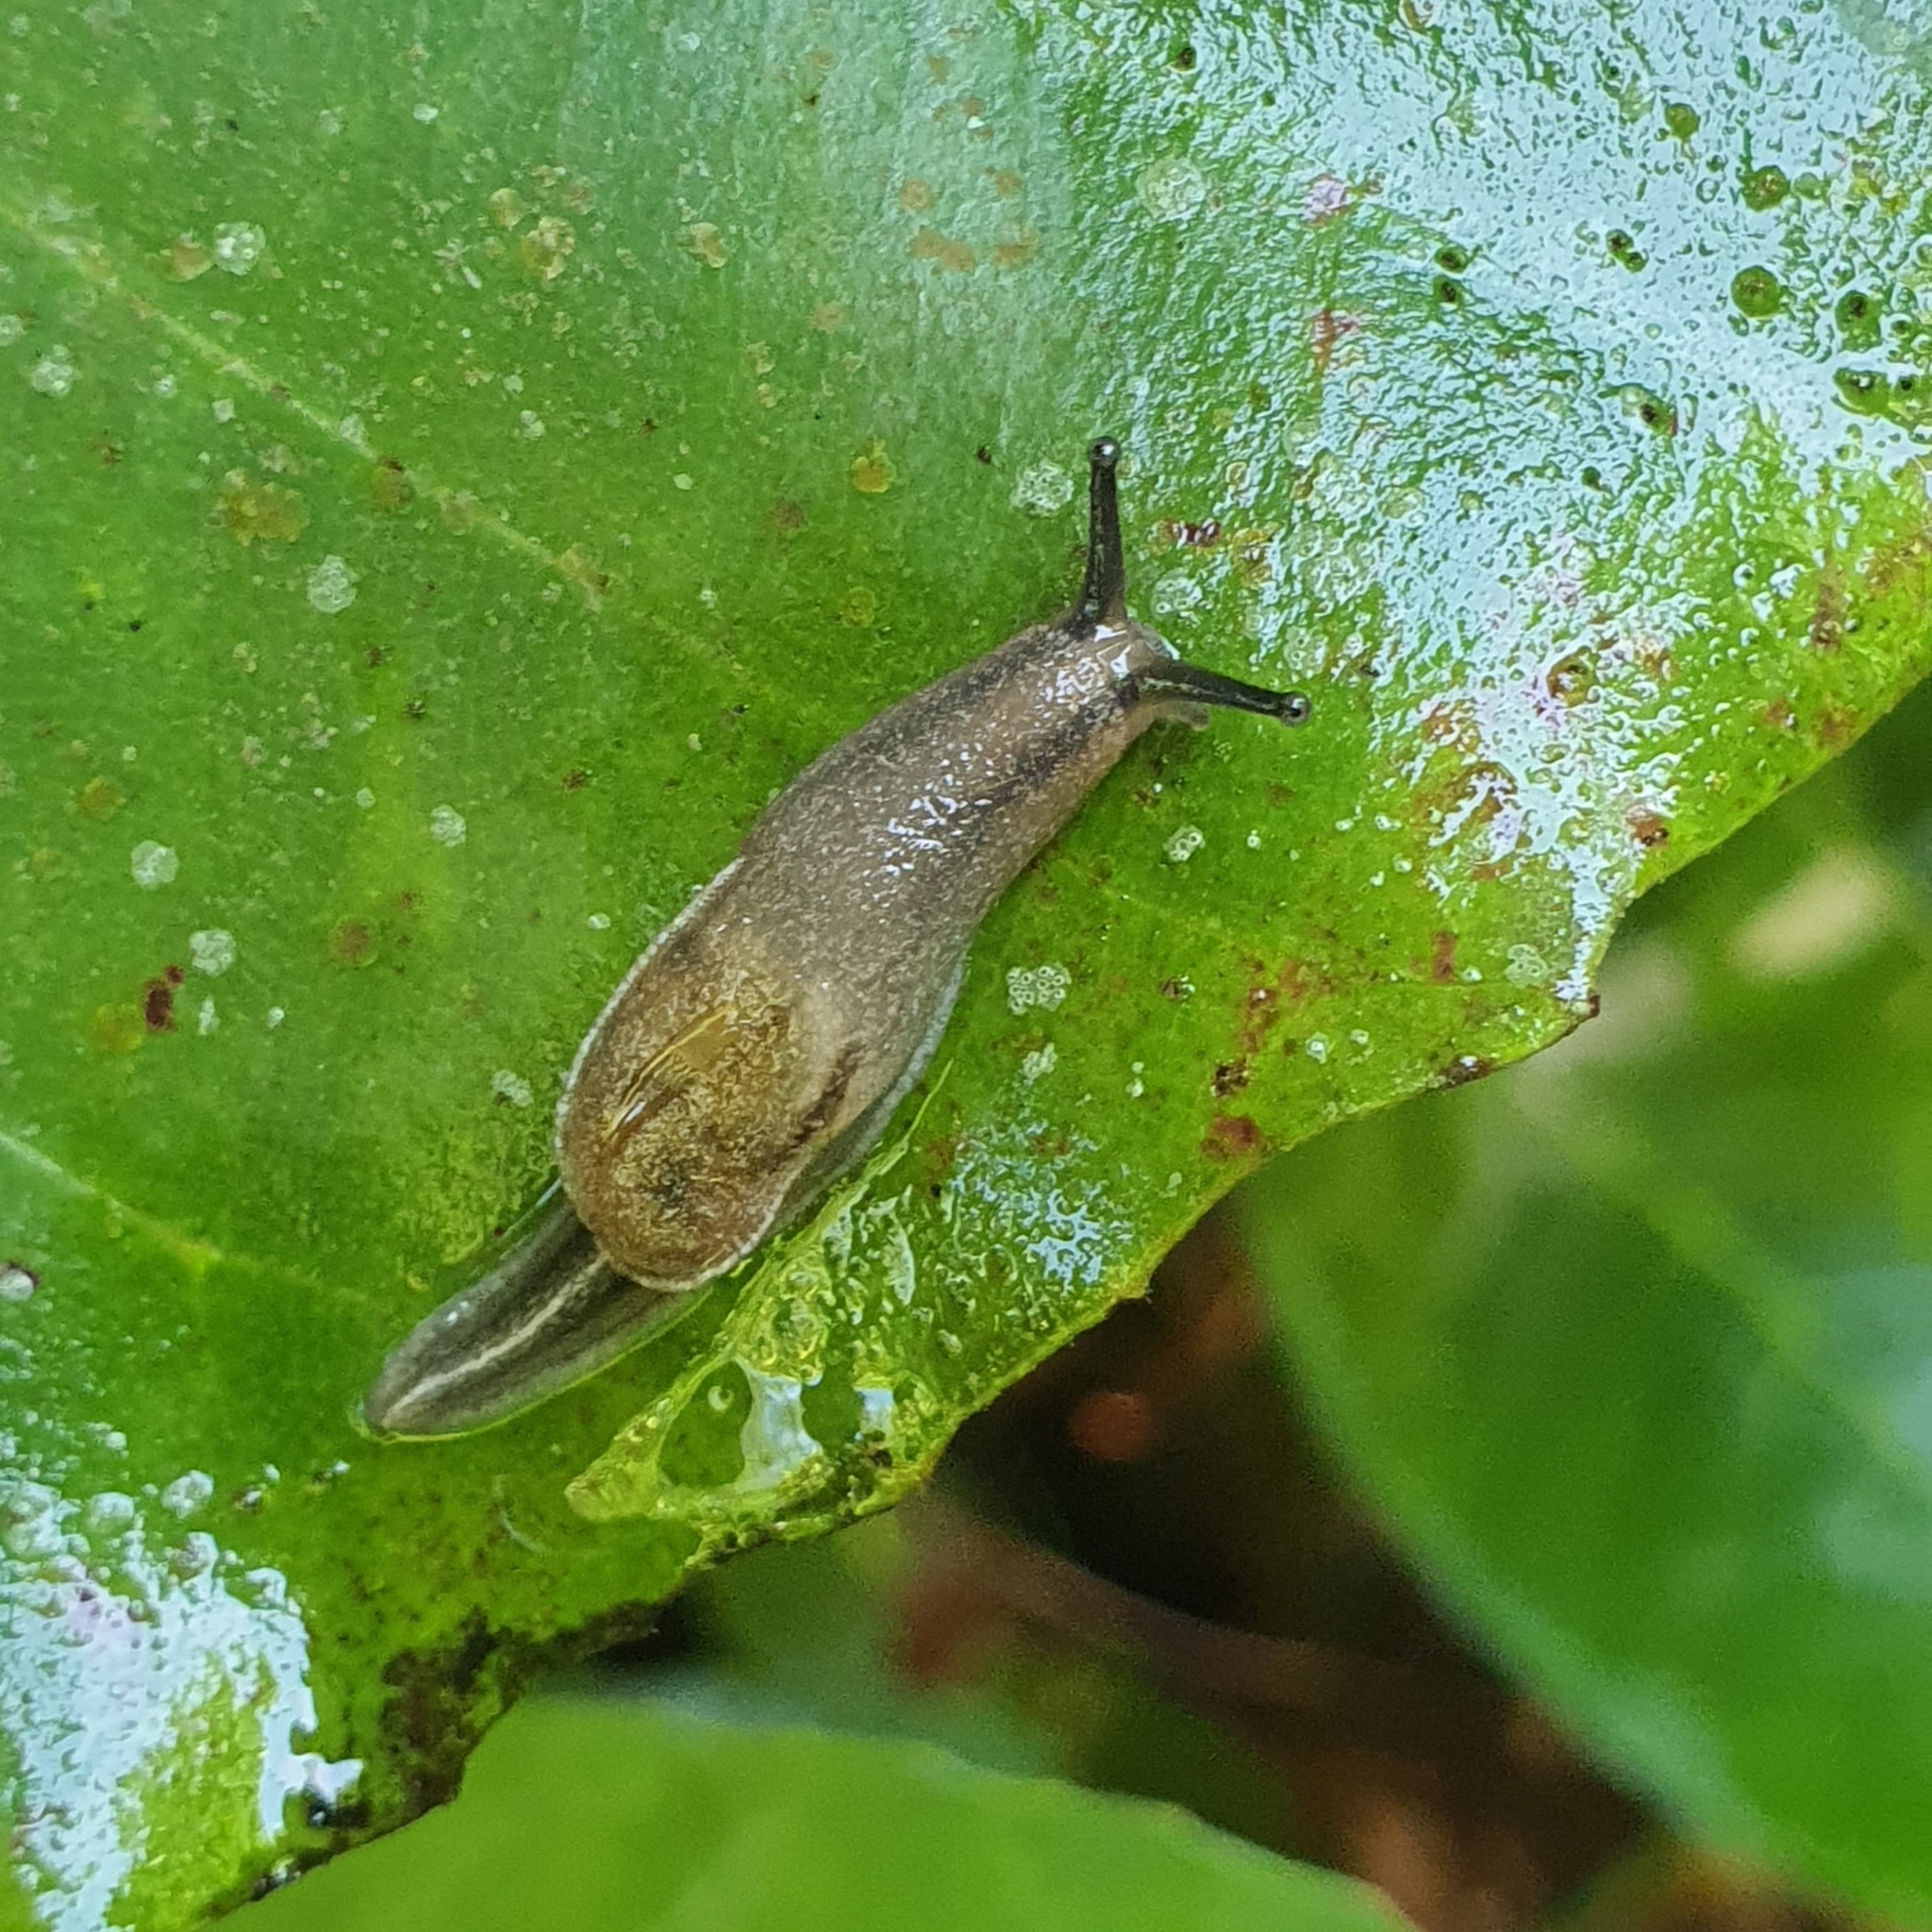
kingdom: Animalia
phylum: Mollusca
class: Gastropoda
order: Stylommatophora
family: Ariophantidae
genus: Parmarion
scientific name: Parmarion martensi
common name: Semi-slug
